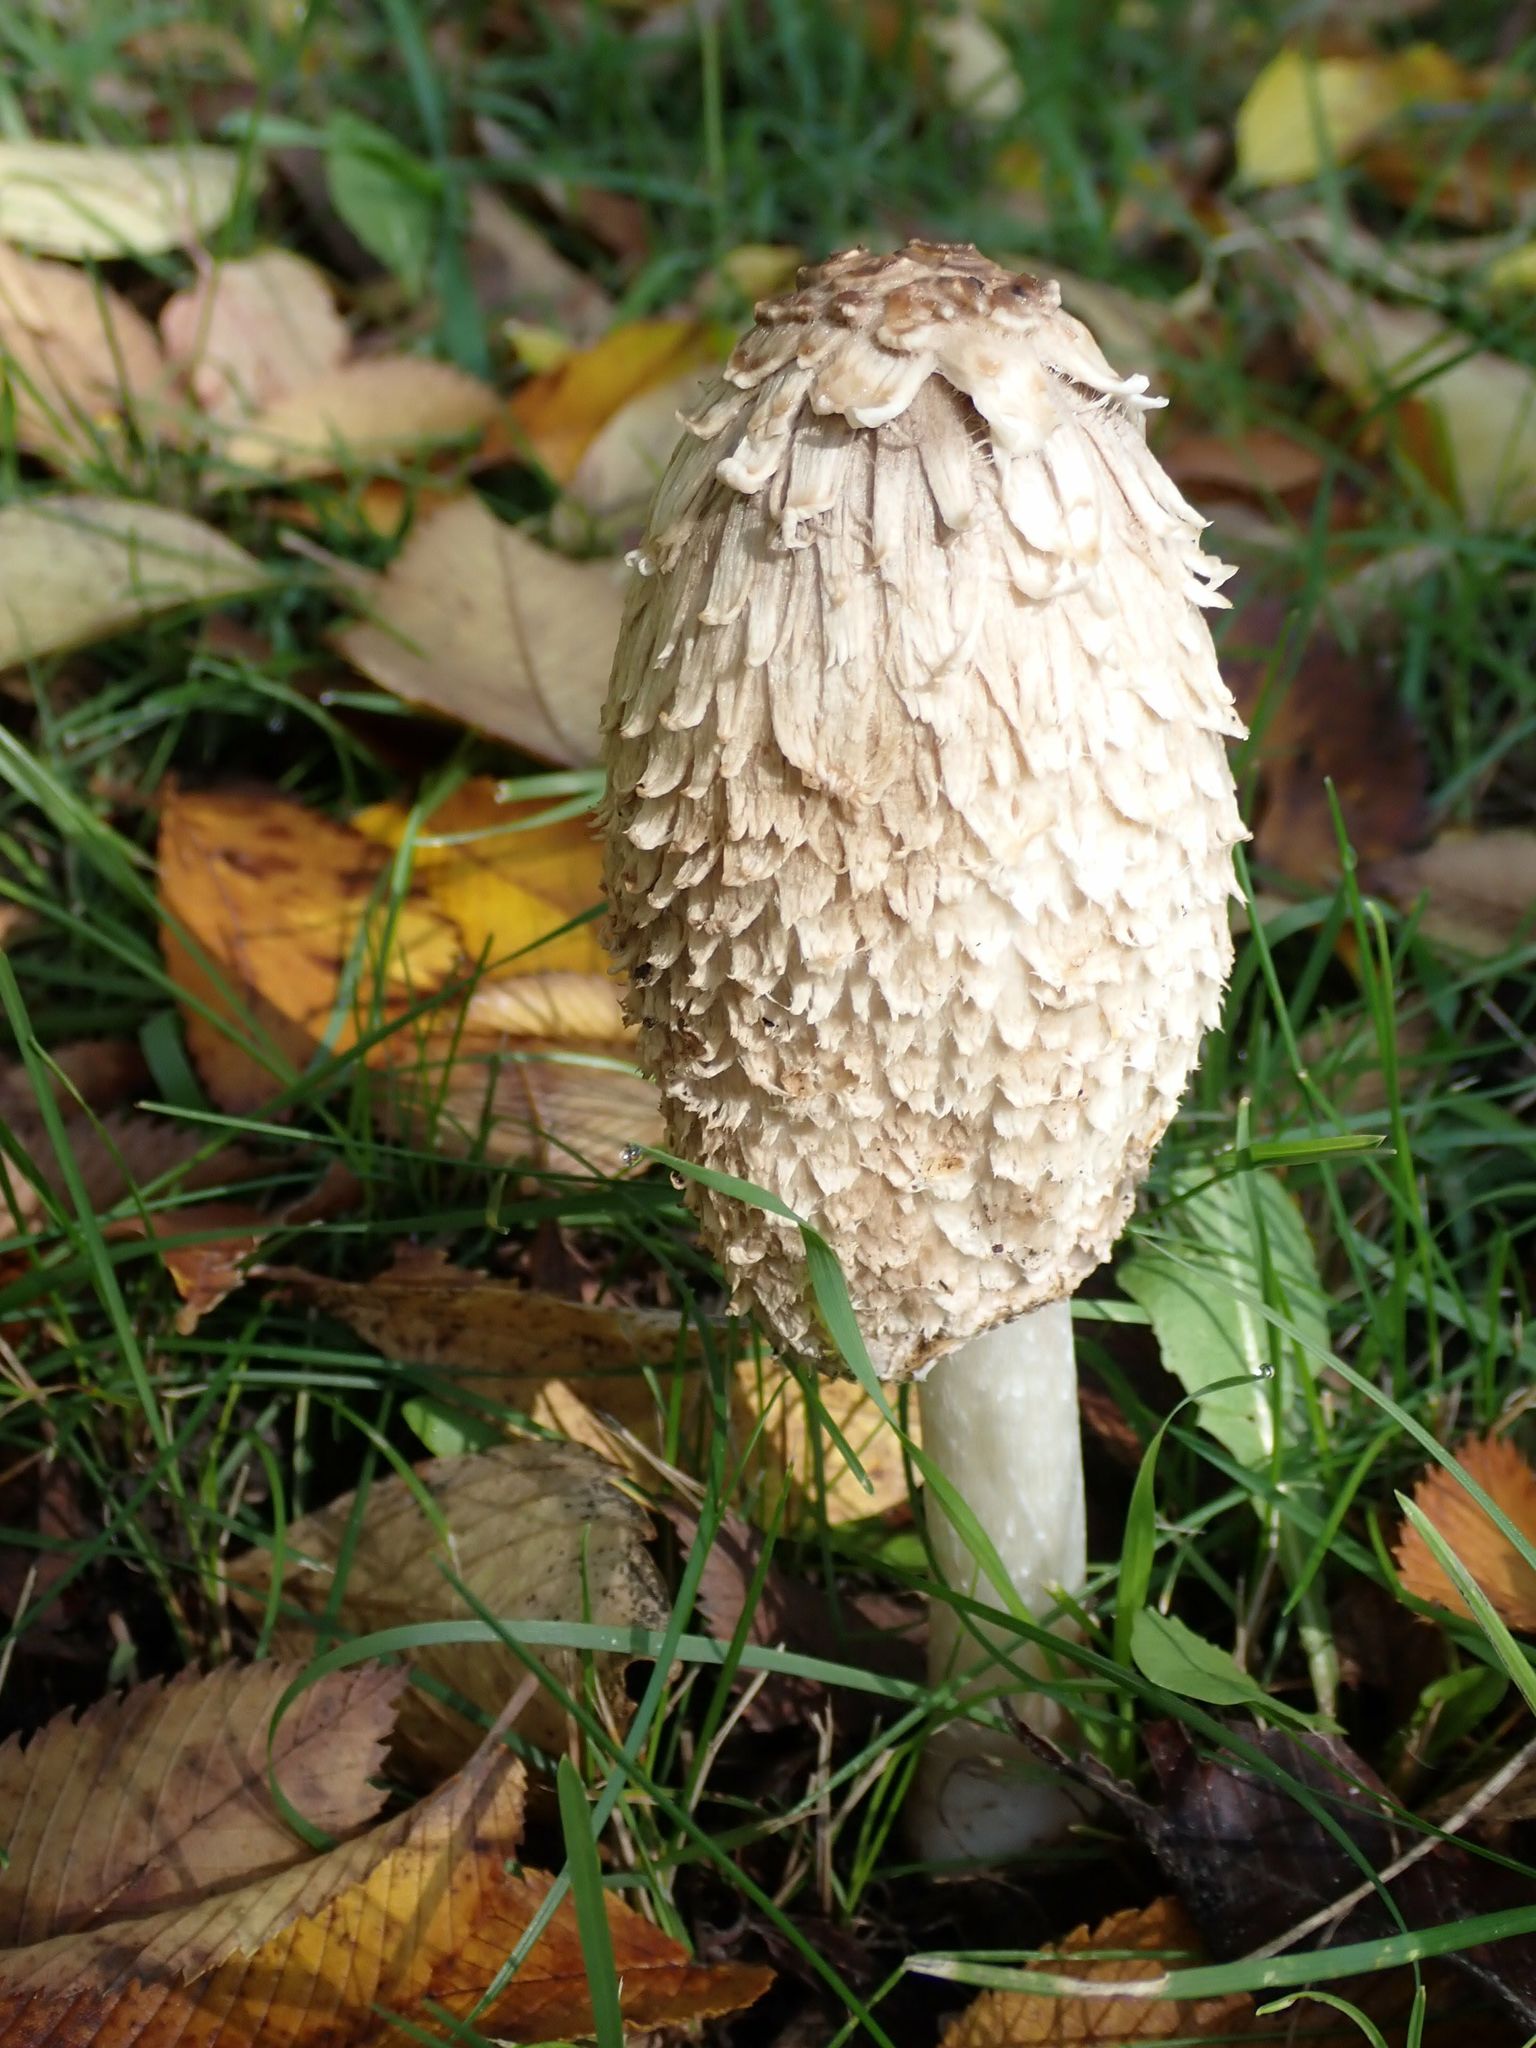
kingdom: Fungi
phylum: Basidiomycota
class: Agaricomycetes
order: Agaricales
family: Agaricaceae
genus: Coprinus
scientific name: Coprinus comatus
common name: Lawyer's wig
